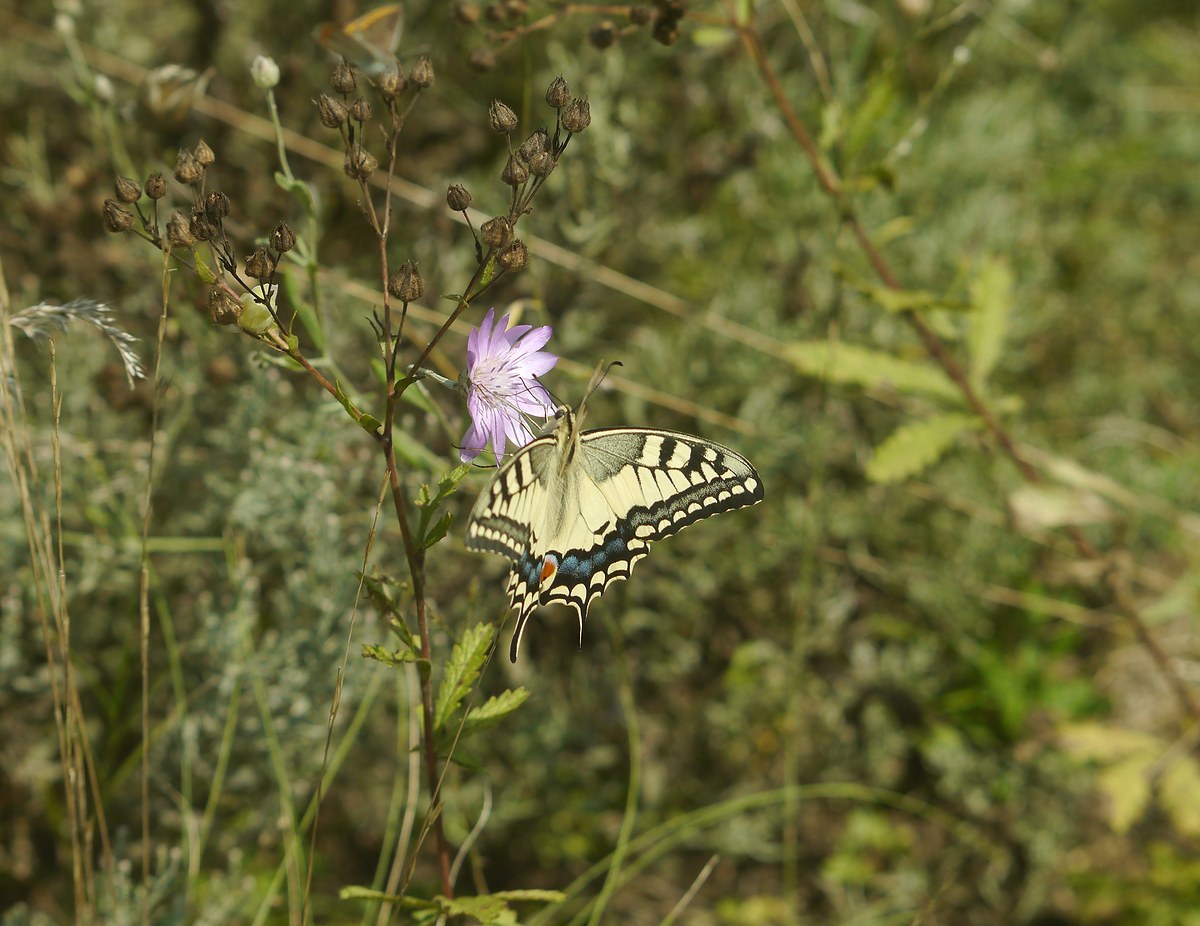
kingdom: Animalia
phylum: Arthropoda
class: Insecta
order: Lepidoptera
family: Papilionidae
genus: Papilio
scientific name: Papilio machaon
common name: Swallowtail
